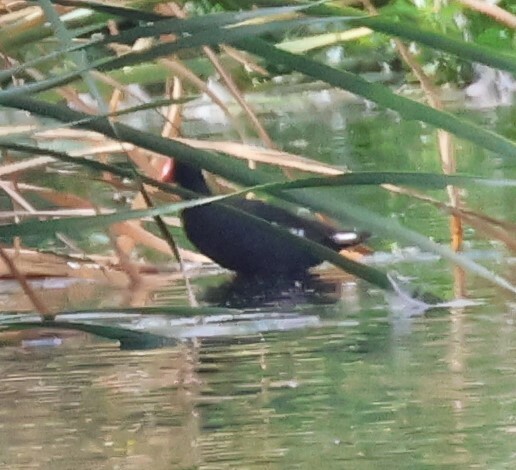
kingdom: Animalia
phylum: Chordata
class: Aves
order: Gruiformes
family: Rallidae
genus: Gallinula
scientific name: Gallinula chloropus
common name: Common moorhen
